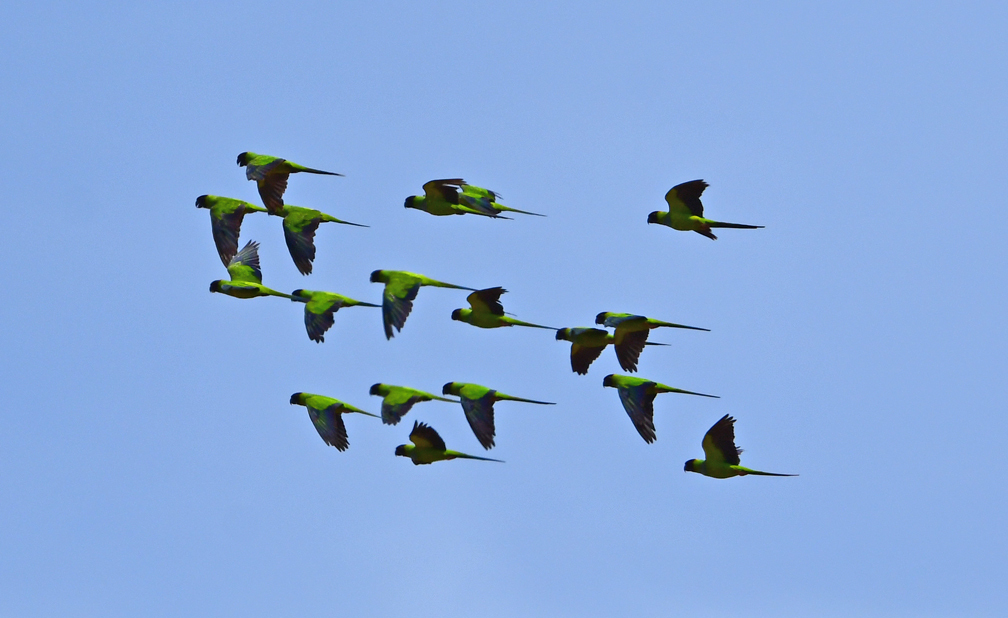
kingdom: Animalia
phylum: Chordata
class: Aves
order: Psittaciformes
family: Psittacidae
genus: Nandayus
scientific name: Nandayus nenday
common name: Nanday parakeet
